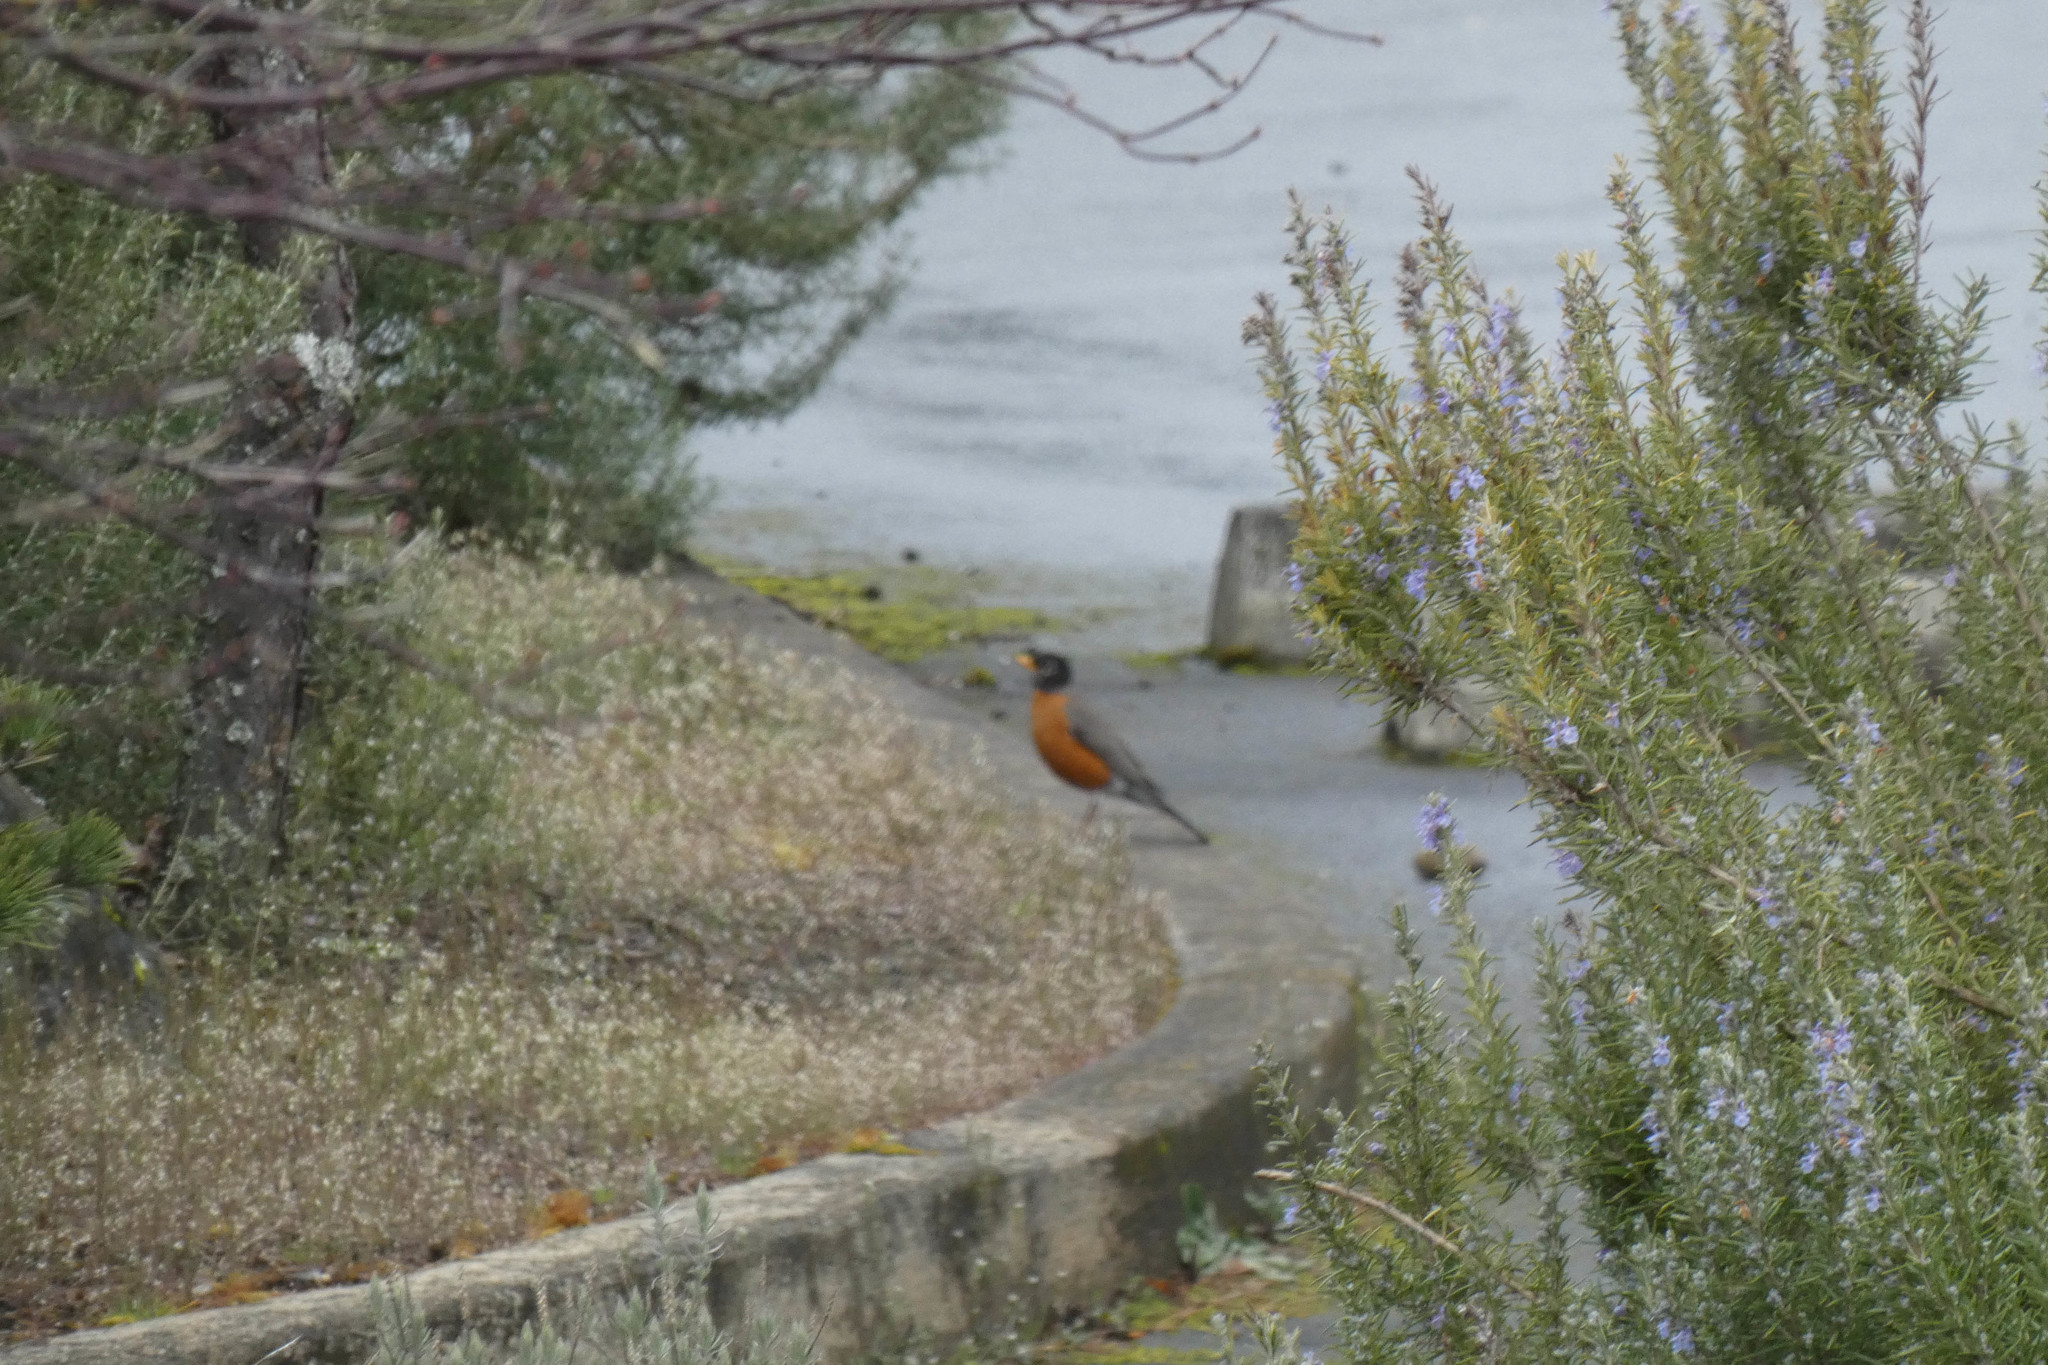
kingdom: Animalia
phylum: Chordata
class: Aves
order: Passeriformes
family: Turdidae
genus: Turdus
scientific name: Turdus migratorius
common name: American robin
